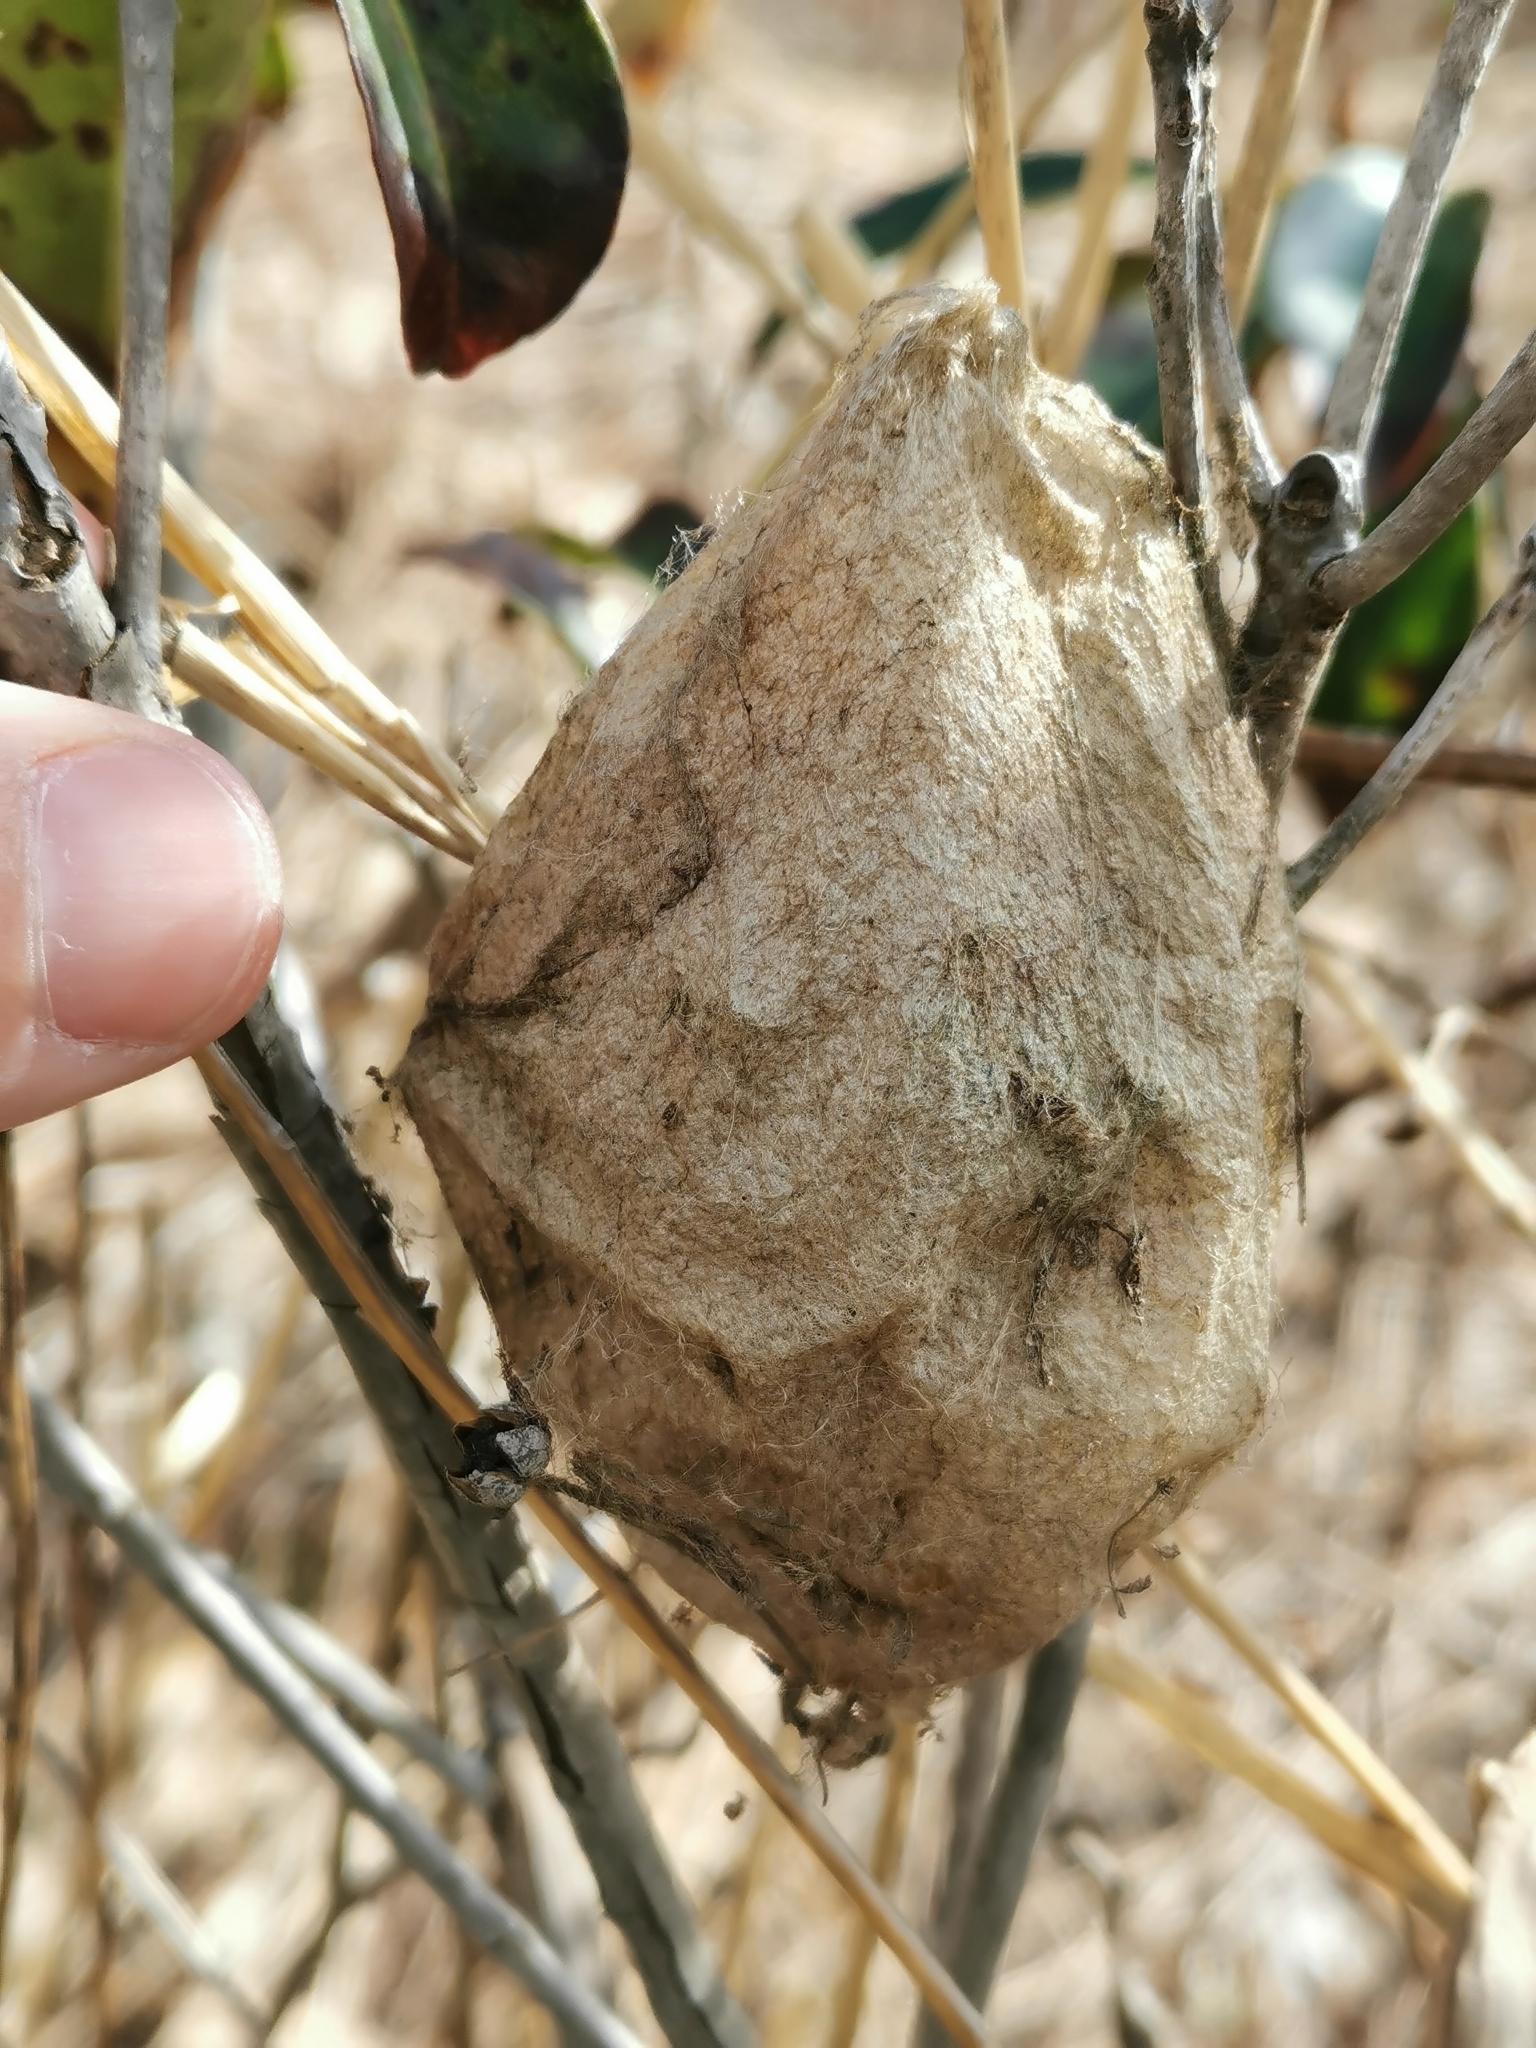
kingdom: Animalia
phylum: Arthropoda
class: Insecta
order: Lepidoptera
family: Saturniidae
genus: Hyalophora
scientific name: Hyalophora cecropia
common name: Cecropia silkmoth
